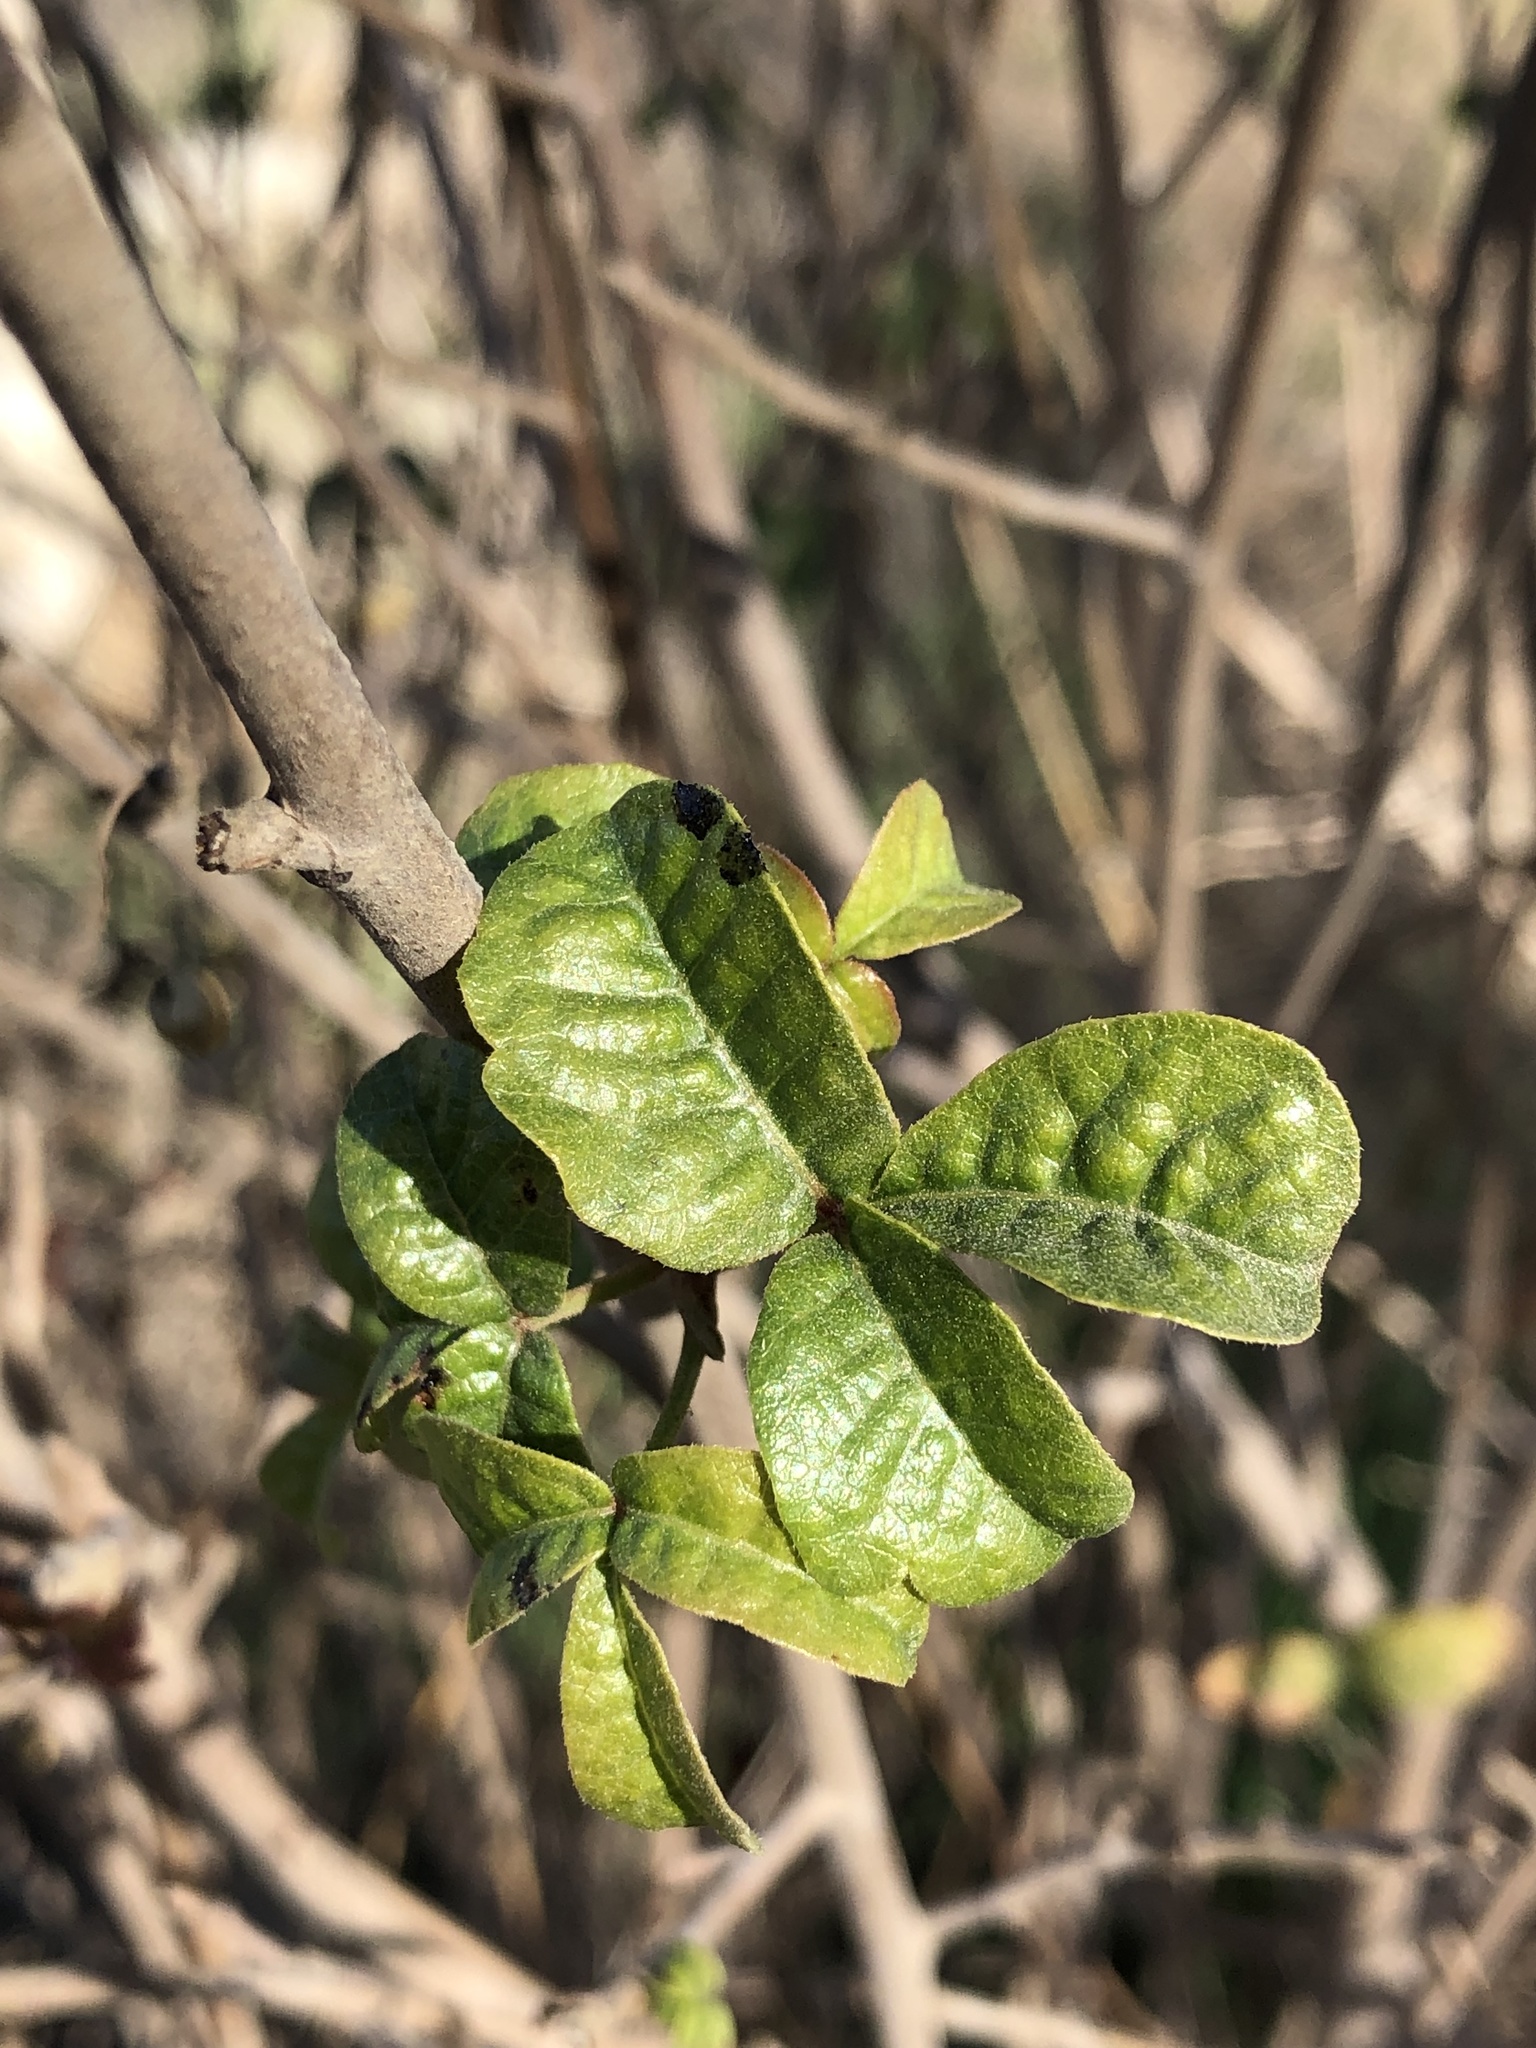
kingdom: Plantae
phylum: Tracheophyta
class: Magnoliopsida
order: Sapindales
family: Anacardiaceae
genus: Toxicodendron
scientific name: Toxicodendron diversilobum
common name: Pacific poison-oak
